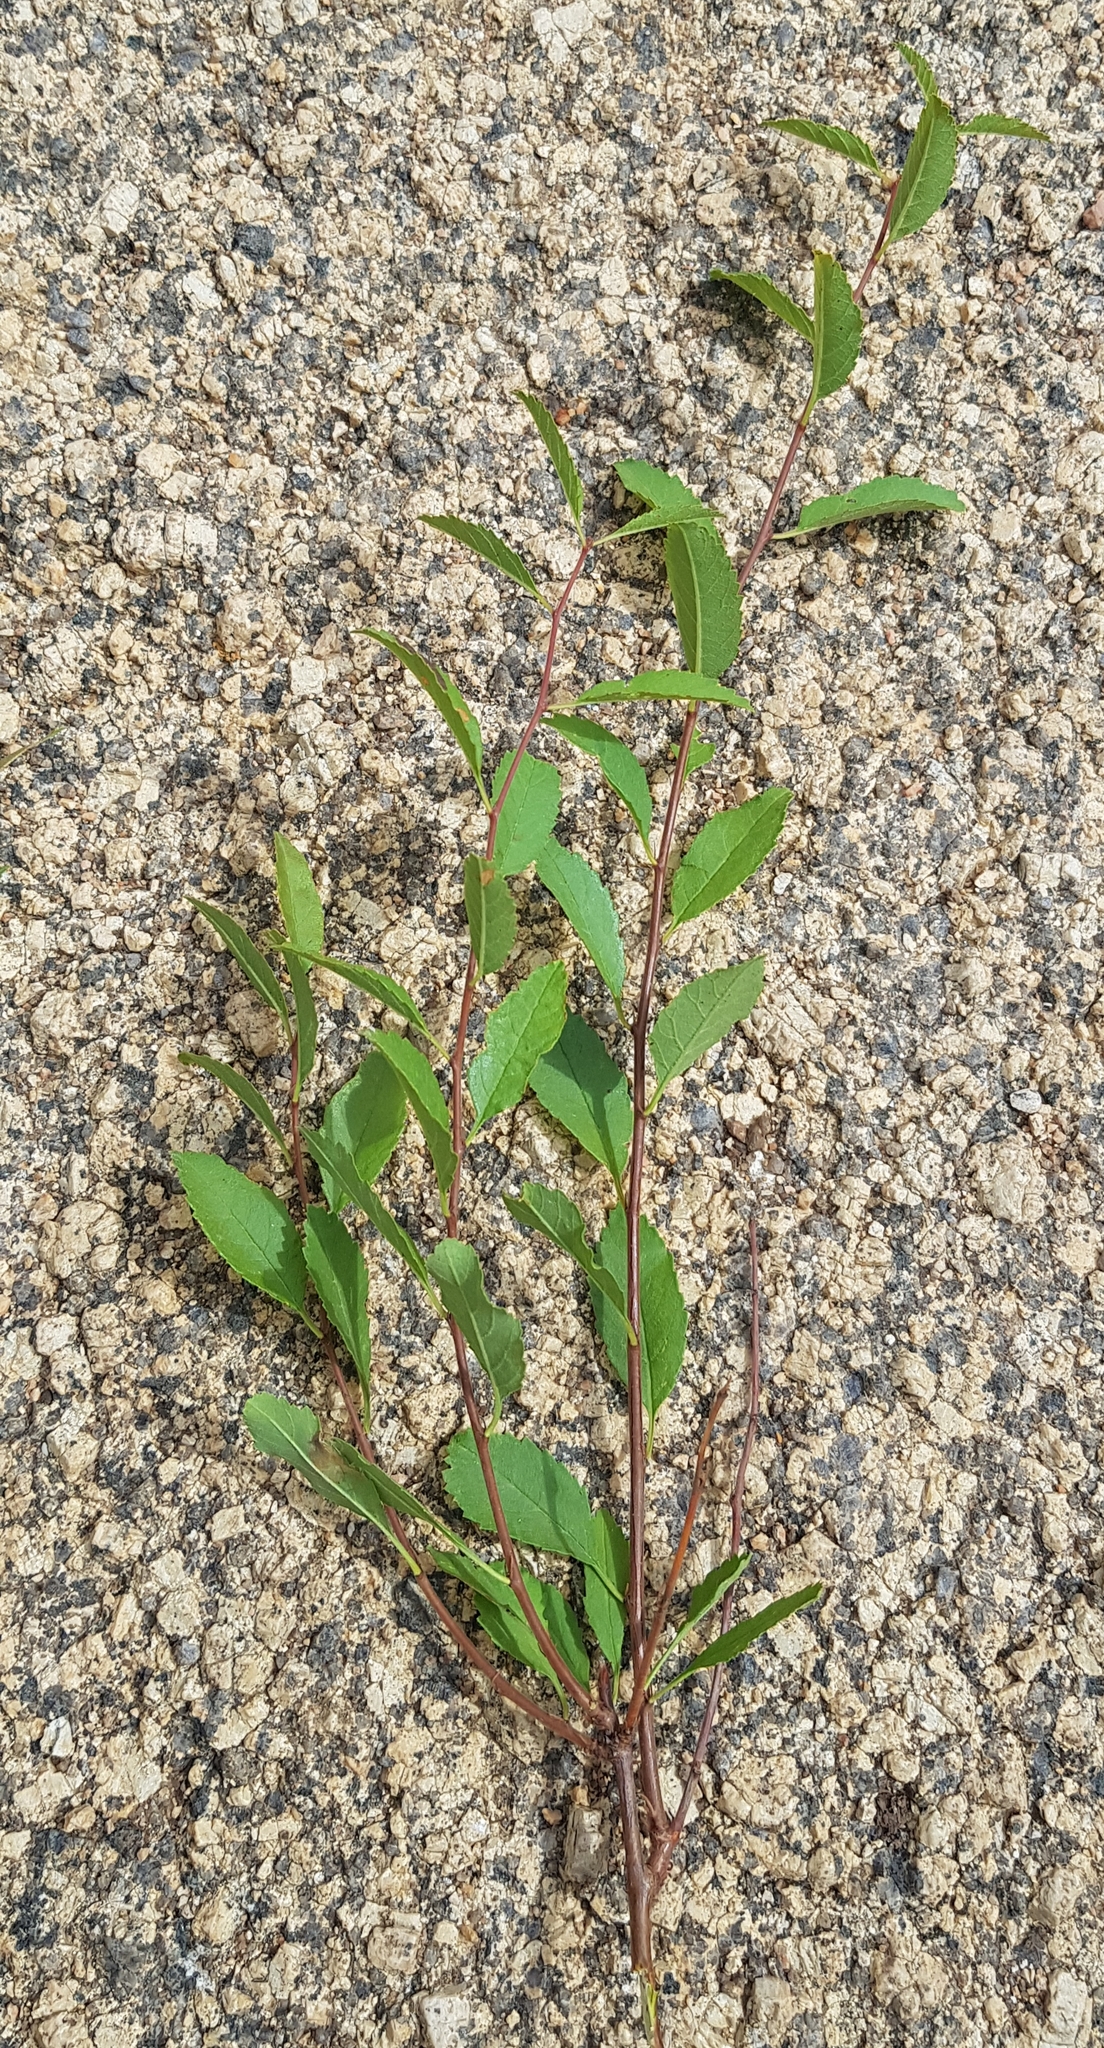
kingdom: Plantae
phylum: Tracheophyta
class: Magnoliopsida
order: Rosales
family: Ulmaceae
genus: Ulmus
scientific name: Ulmus pumila
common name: Siberian elm
